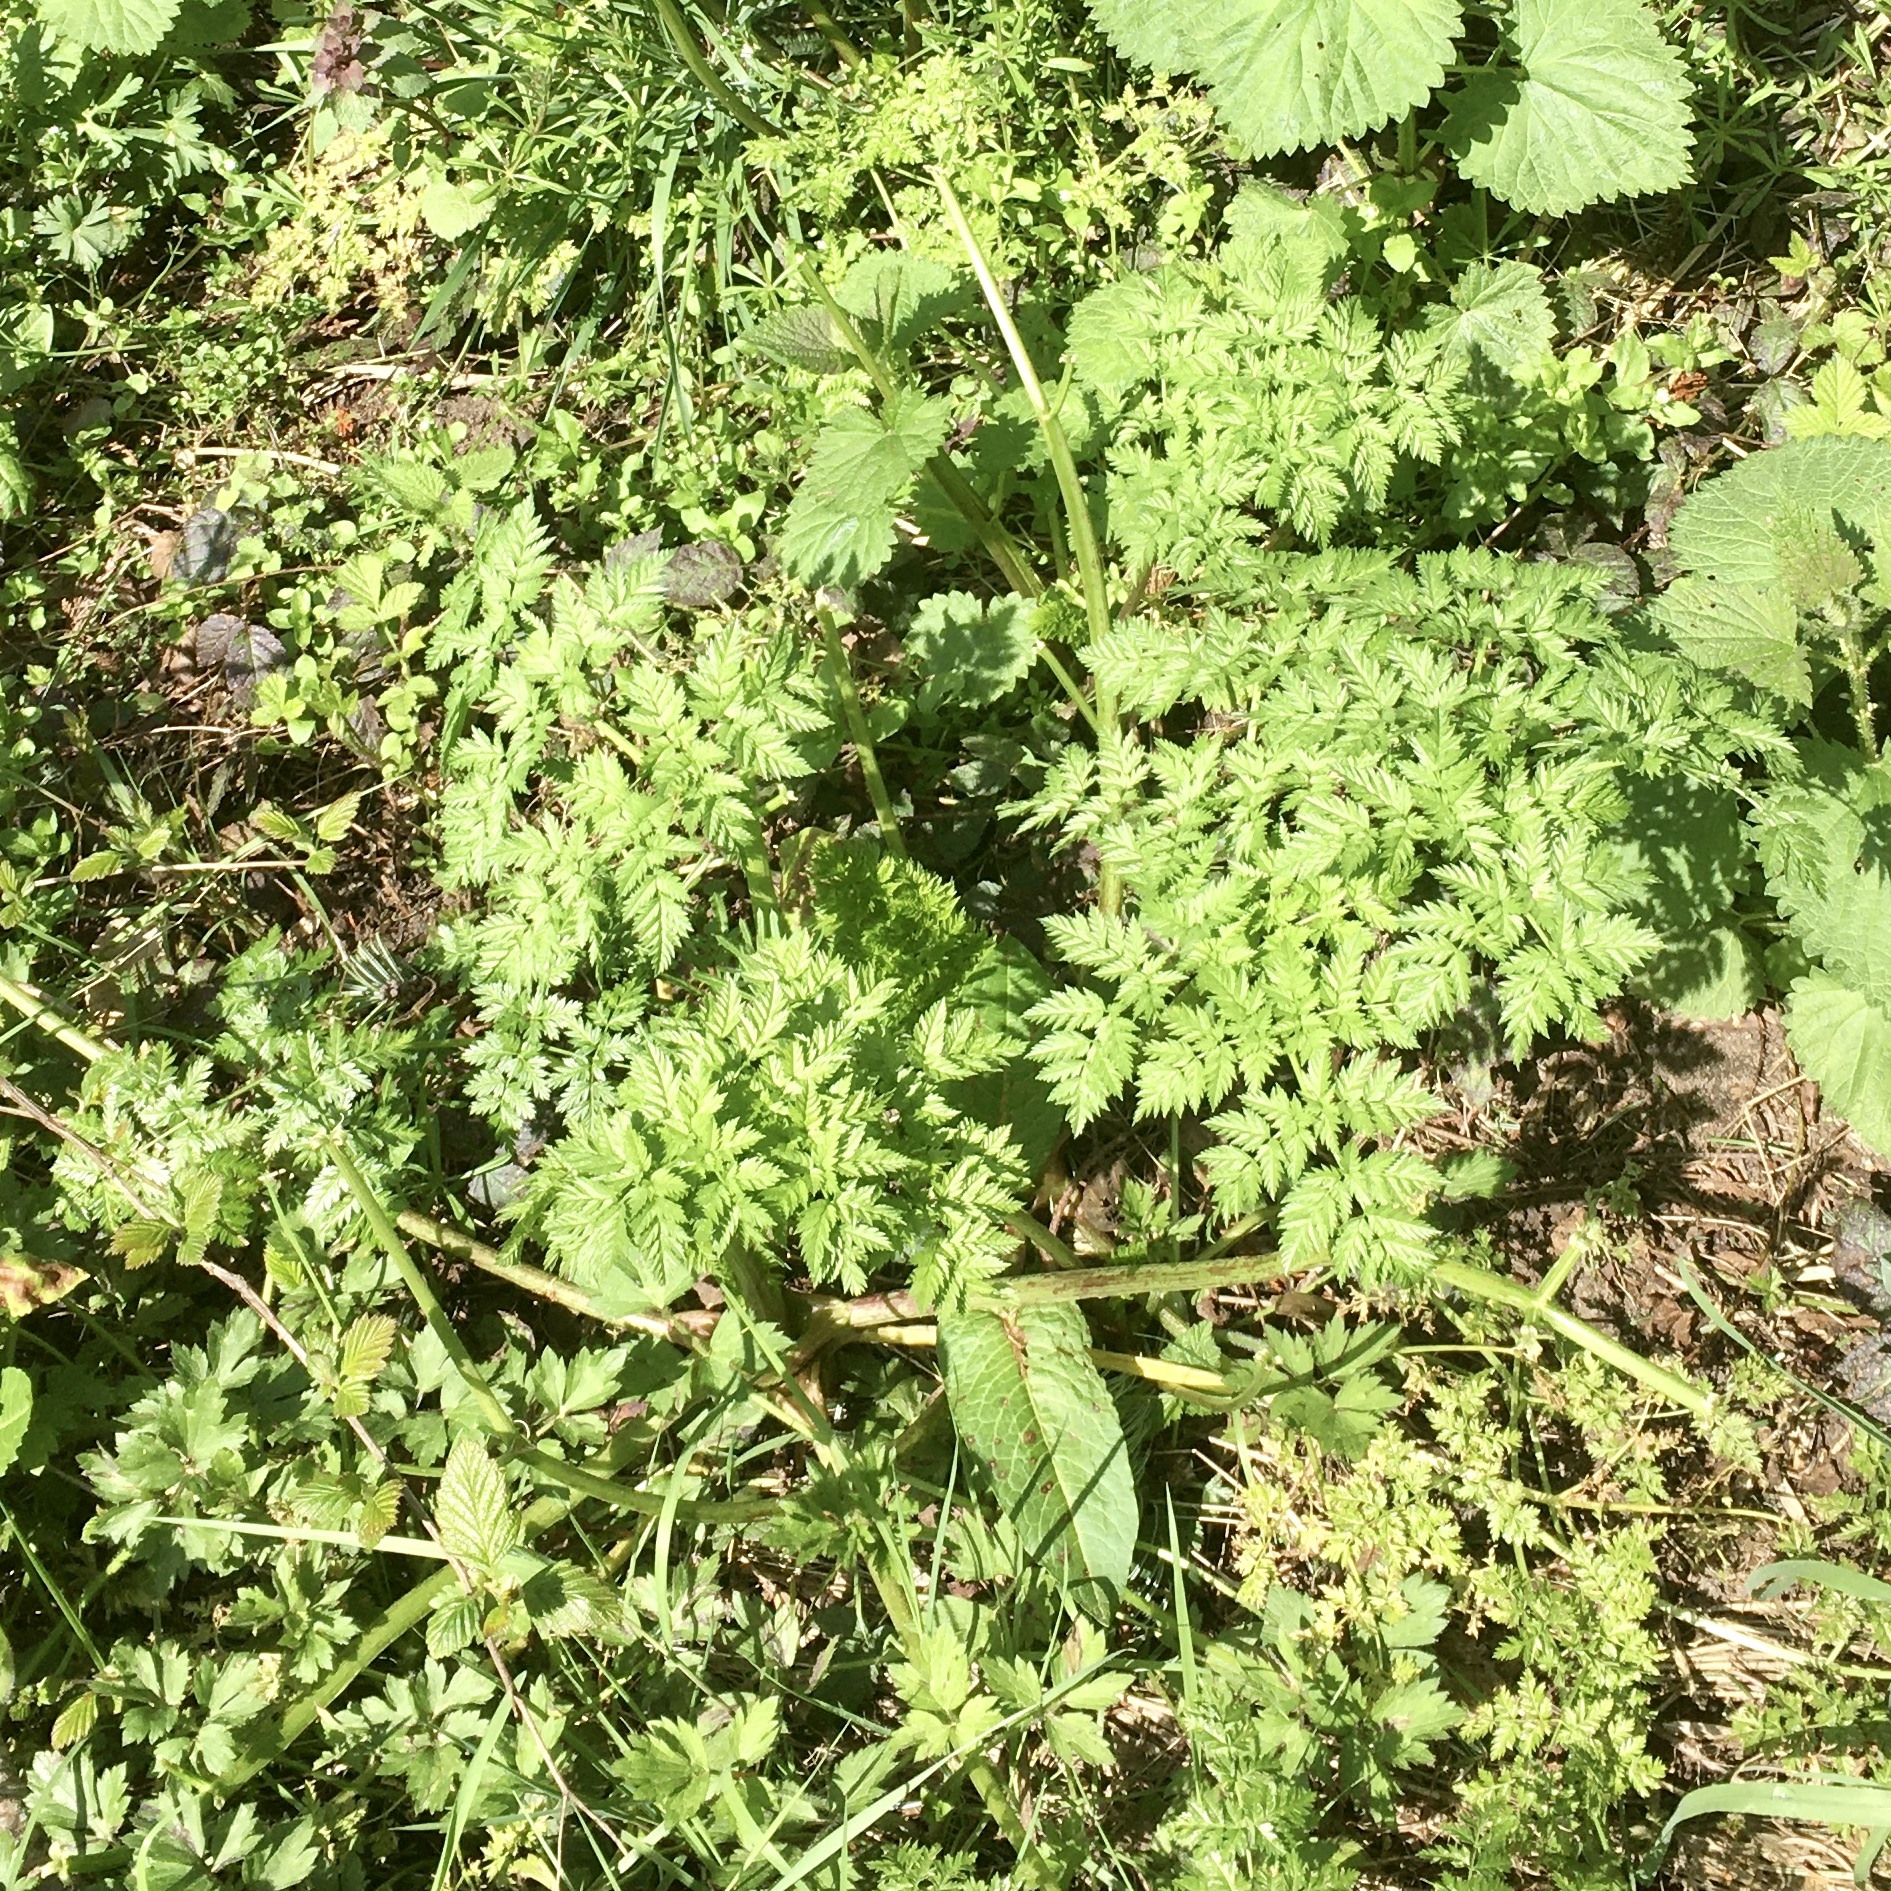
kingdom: Plantae
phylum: Tracheophyta
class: Magnoliopsida
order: Apiales
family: Apiaceae
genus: Conium
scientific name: Conium maculatum
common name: Hemlock
